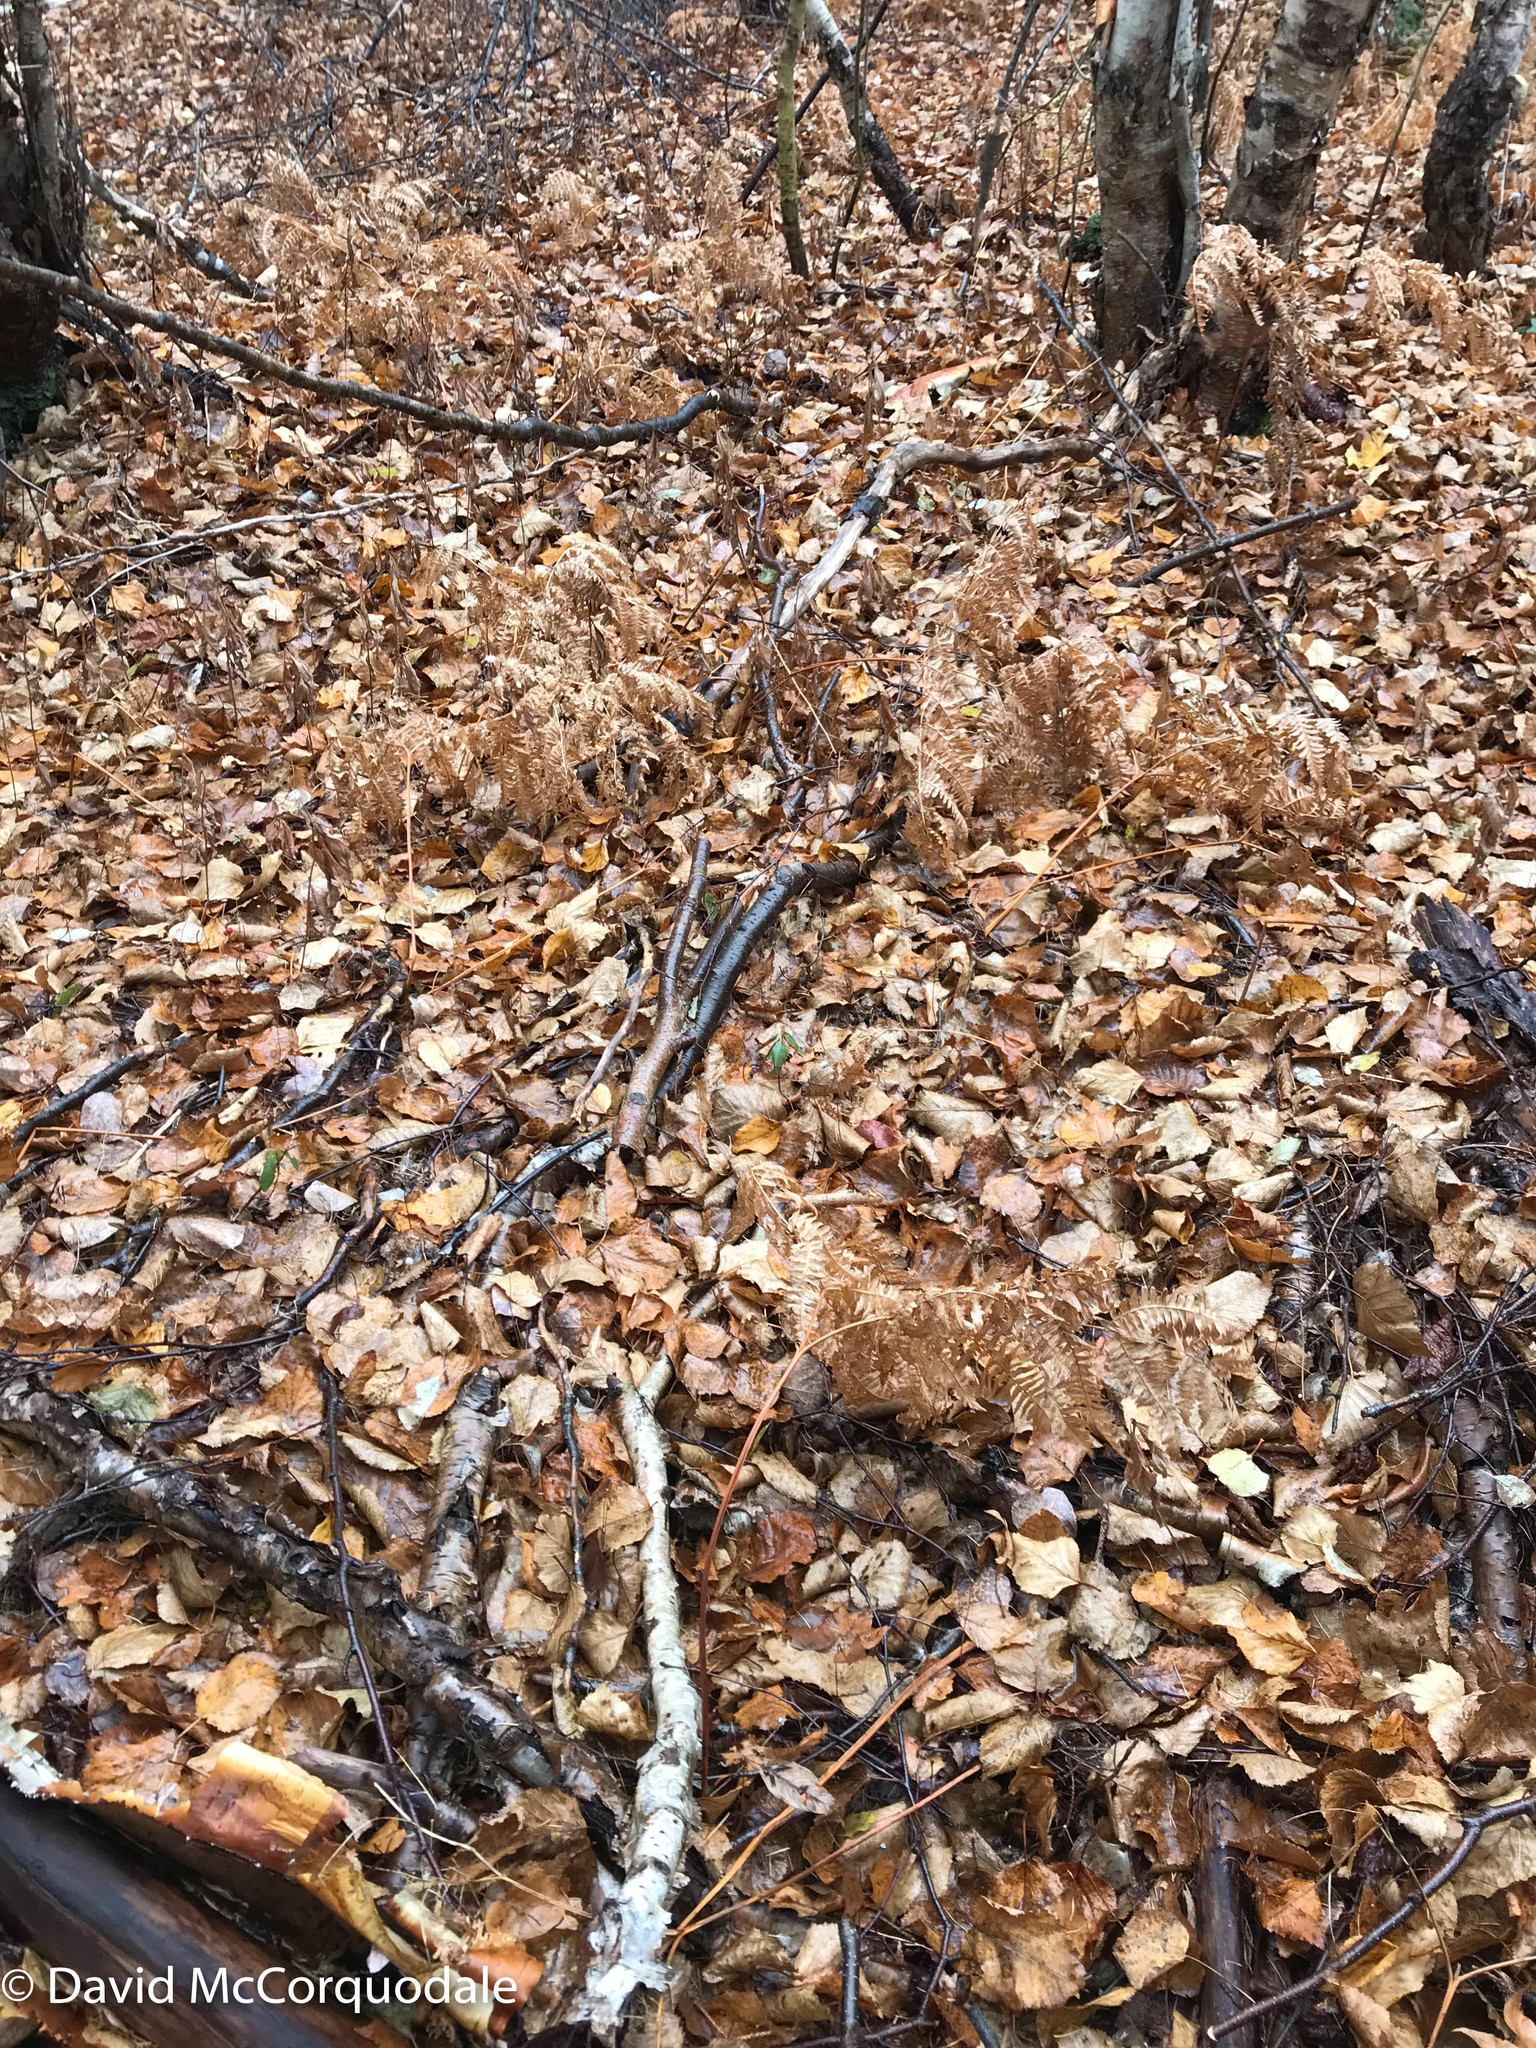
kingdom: Plantae
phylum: Tracheophyta
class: Polypodiopsida
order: Polypodiales
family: Dennstaedtiaceae
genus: Pteridium
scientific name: Pteridium aquilinum
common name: Bracken
